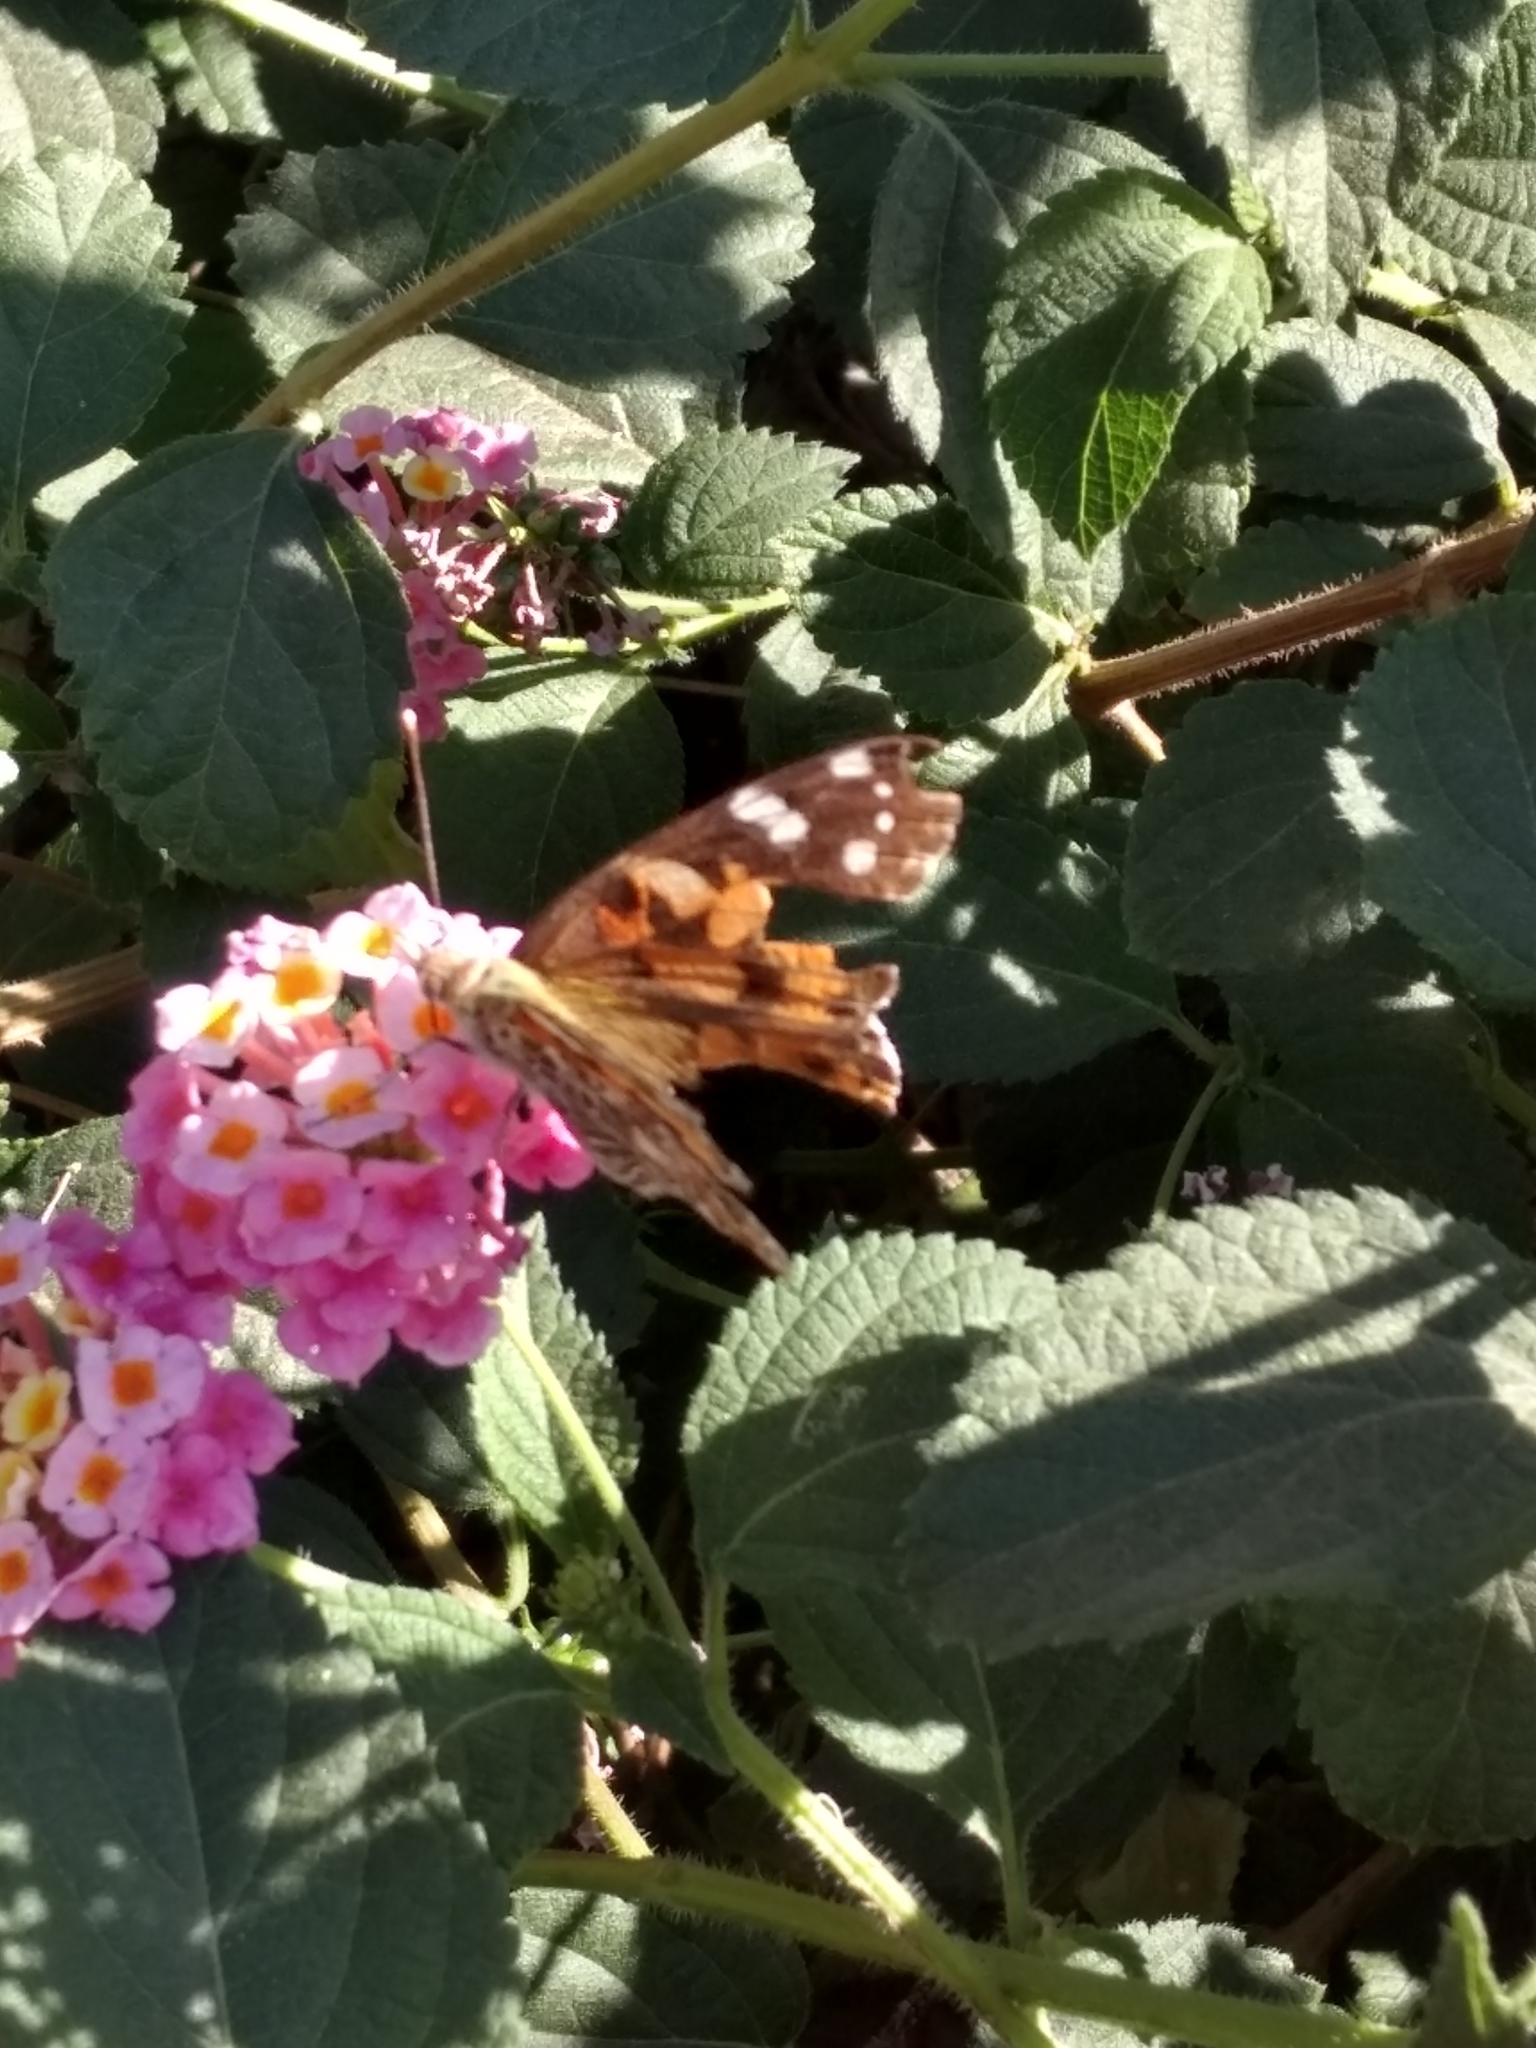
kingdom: Animalia
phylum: Arthropoda
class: Insecta
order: Lepidoptera
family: Nymphalidae
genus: Vanessa
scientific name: Vanessa cardui
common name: Painted lady
